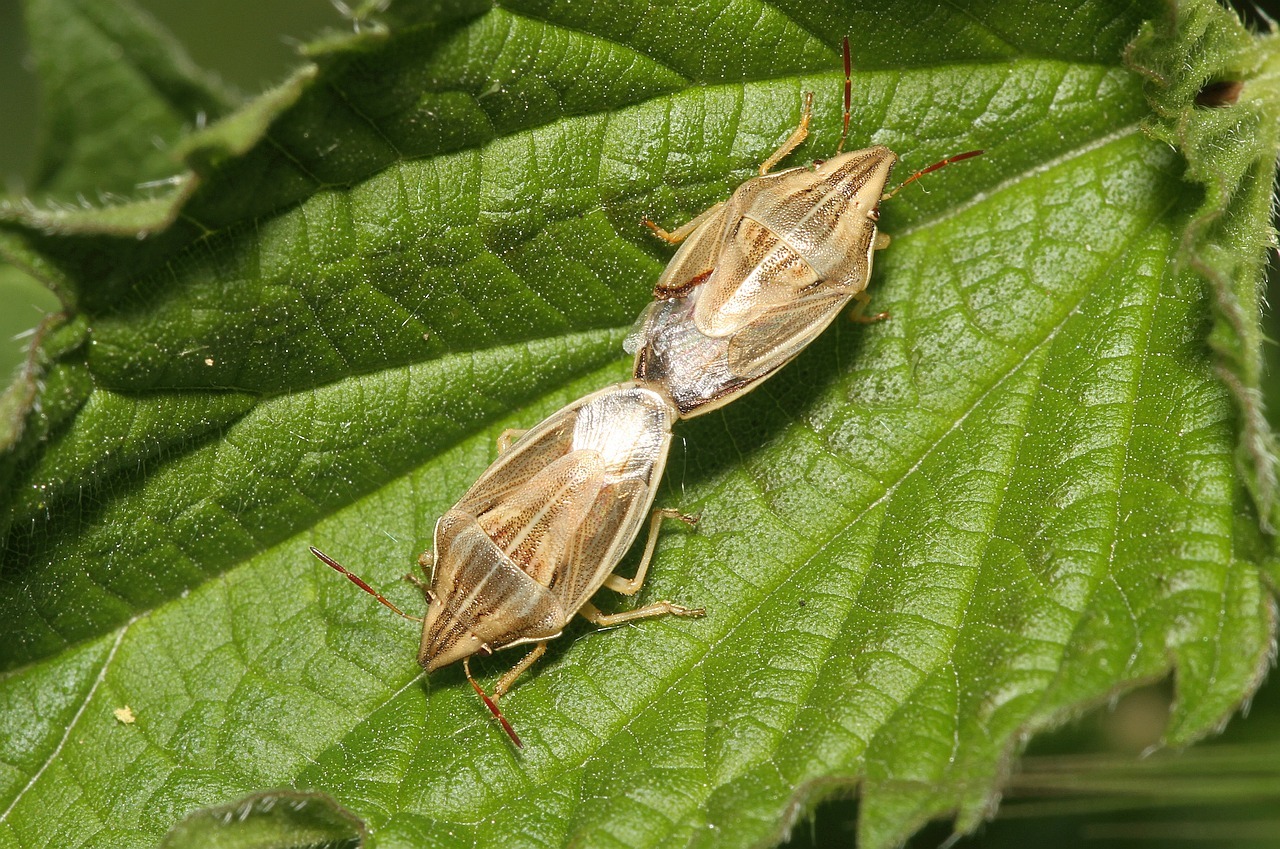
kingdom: Animalia
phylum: Arthropoda
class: Insecta
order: Hemiptera
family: Pentatomidae
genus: Aelia
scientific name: Aelia acuminata
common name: Bishop's mitre
